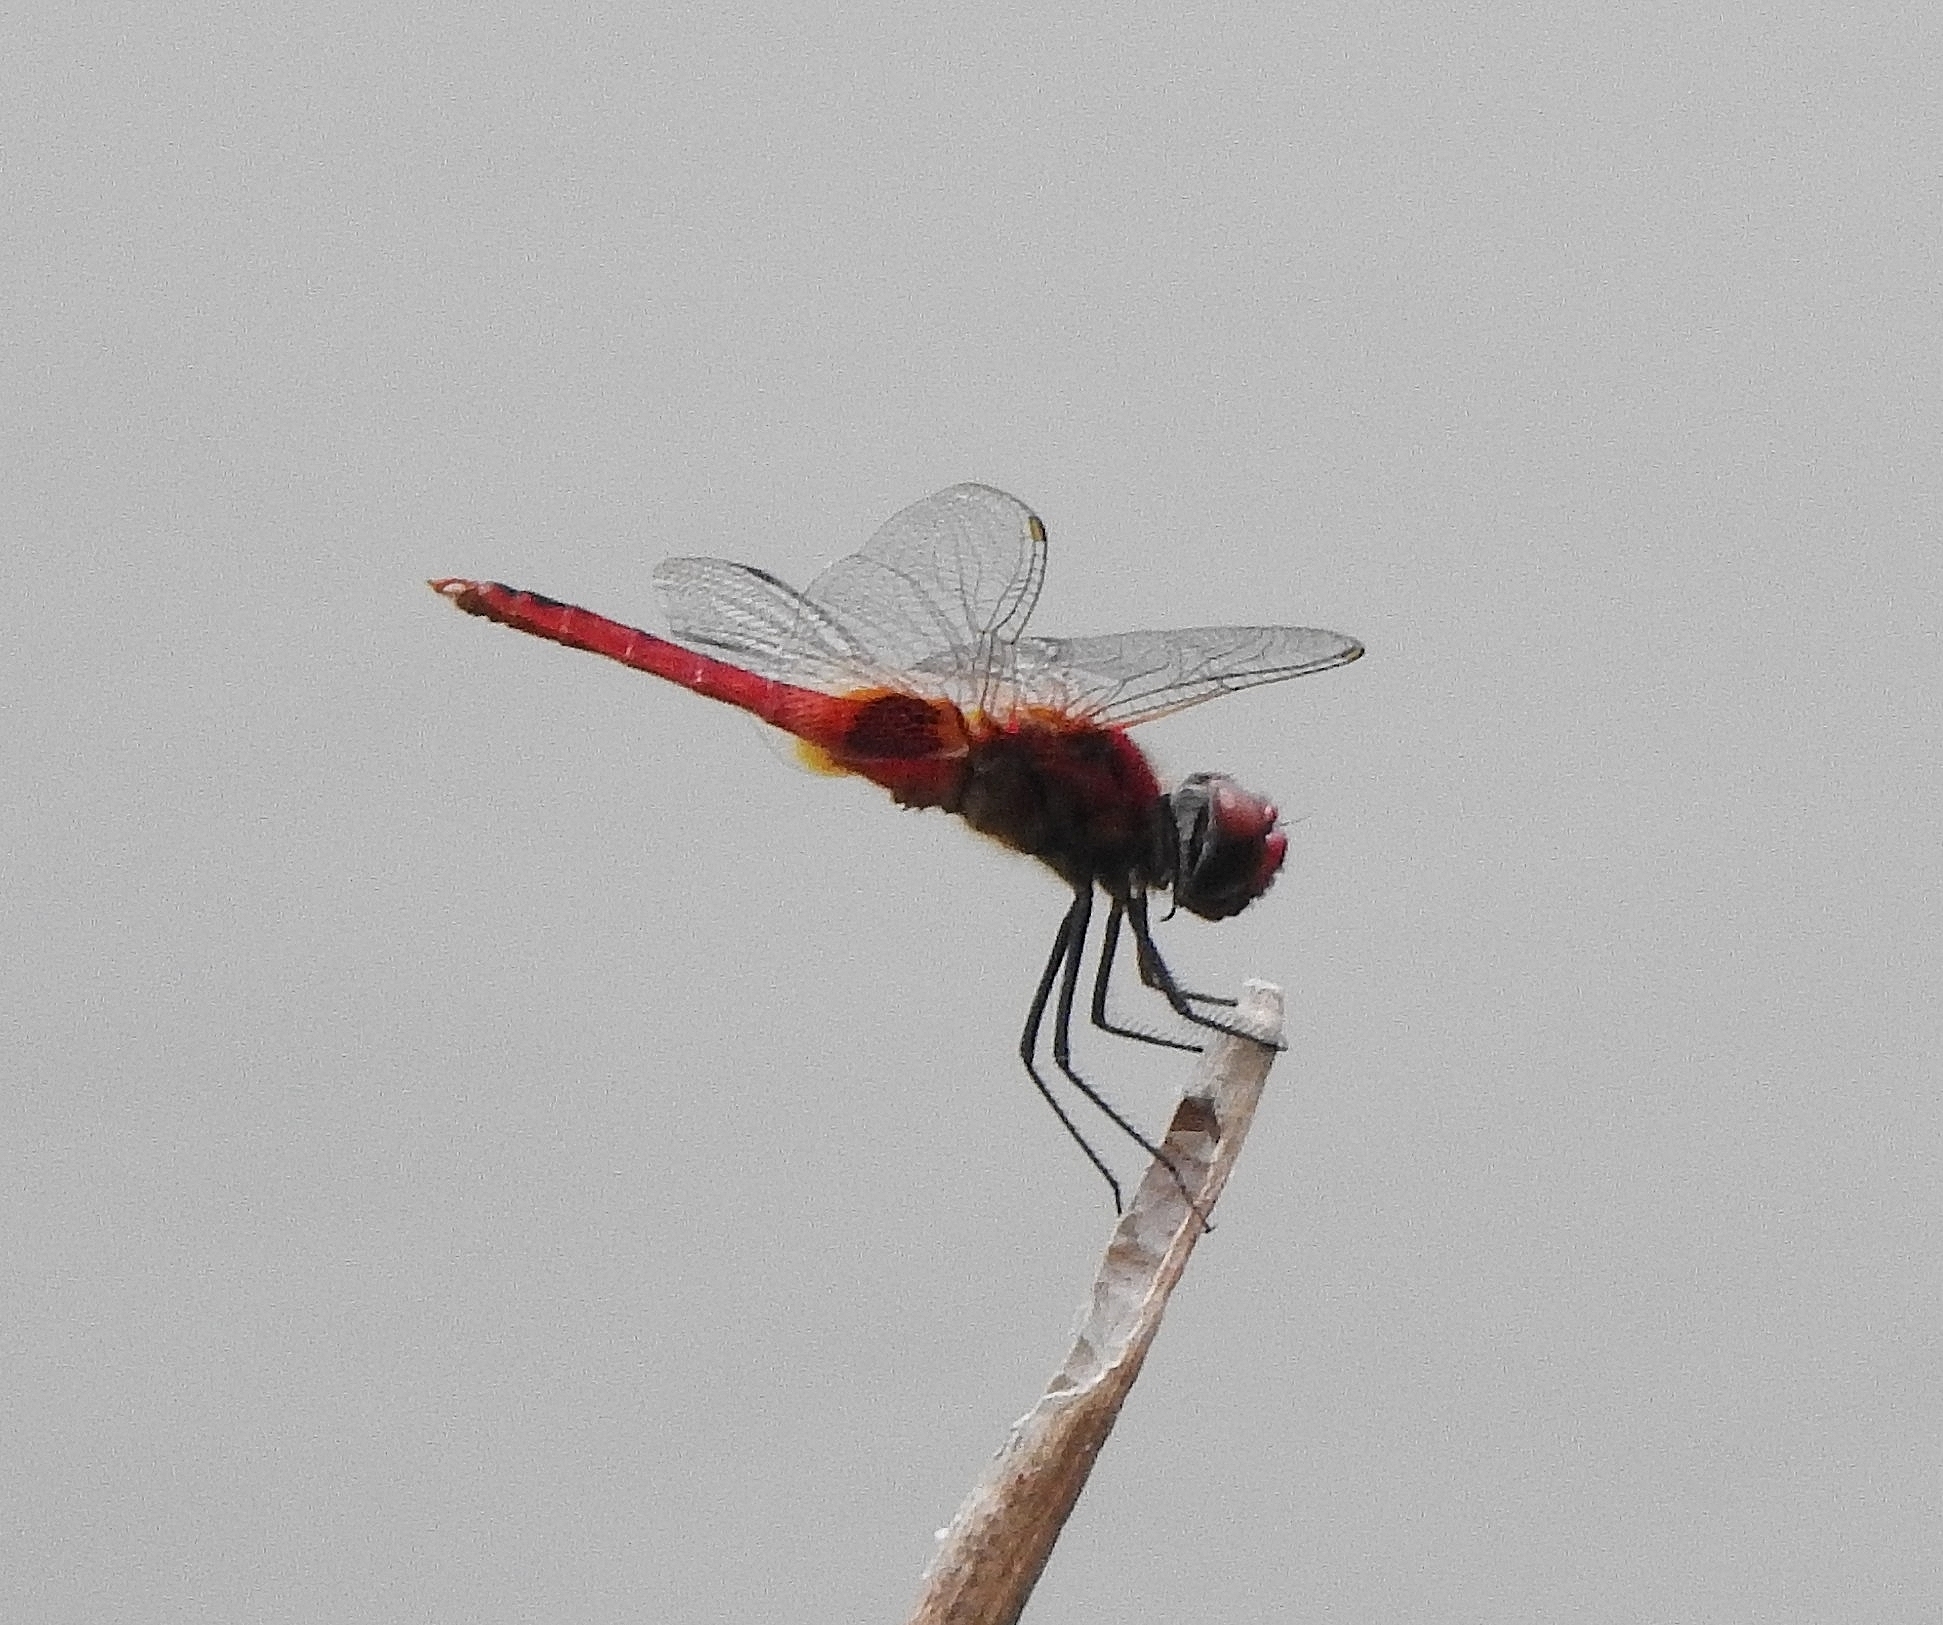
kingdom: Animalia
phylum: Arthropoda
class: Insecta
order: Odonata
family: Libellulidae
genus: Urothemis
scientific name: Urothemis signata
